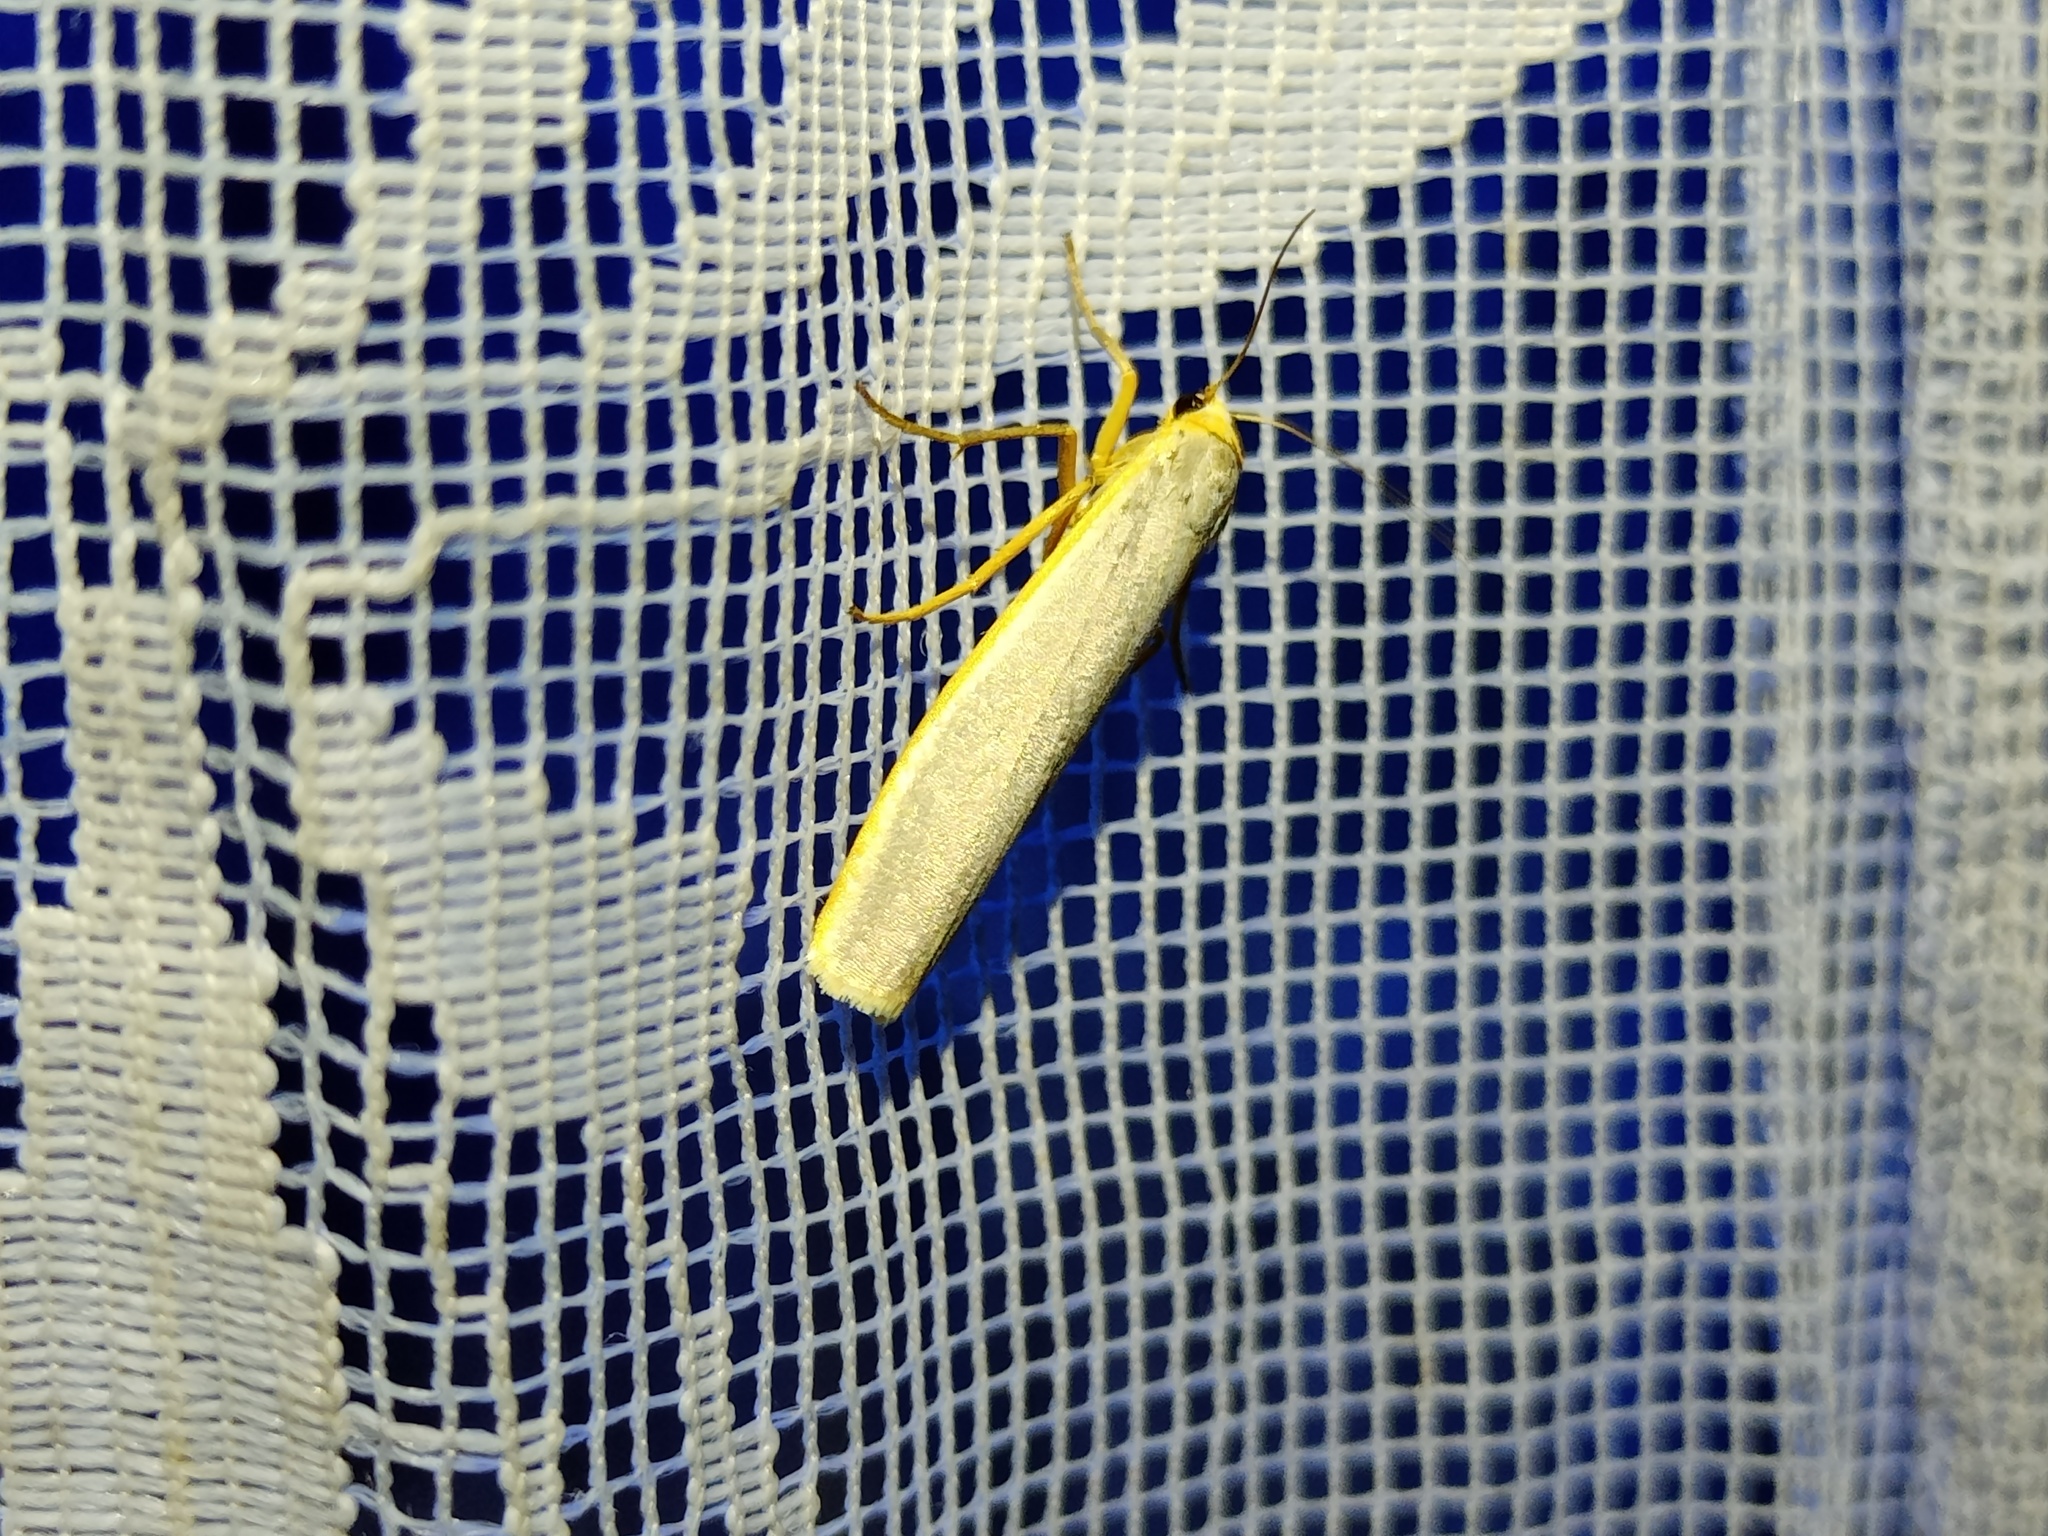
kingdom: Animalia
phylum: Arthropoda
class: Insecta
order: Lepidoptera
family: Erebidae
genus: Manulea
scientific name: Manulea complana
